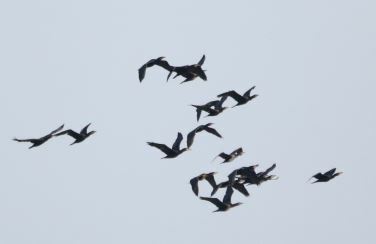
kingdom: Animalia
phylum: Chordata
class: Aves
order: Suliformes
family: Phalacrocoracidae
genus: Phalacrocorax
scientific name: Phalacrocorax carbo
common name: Great cormorant
